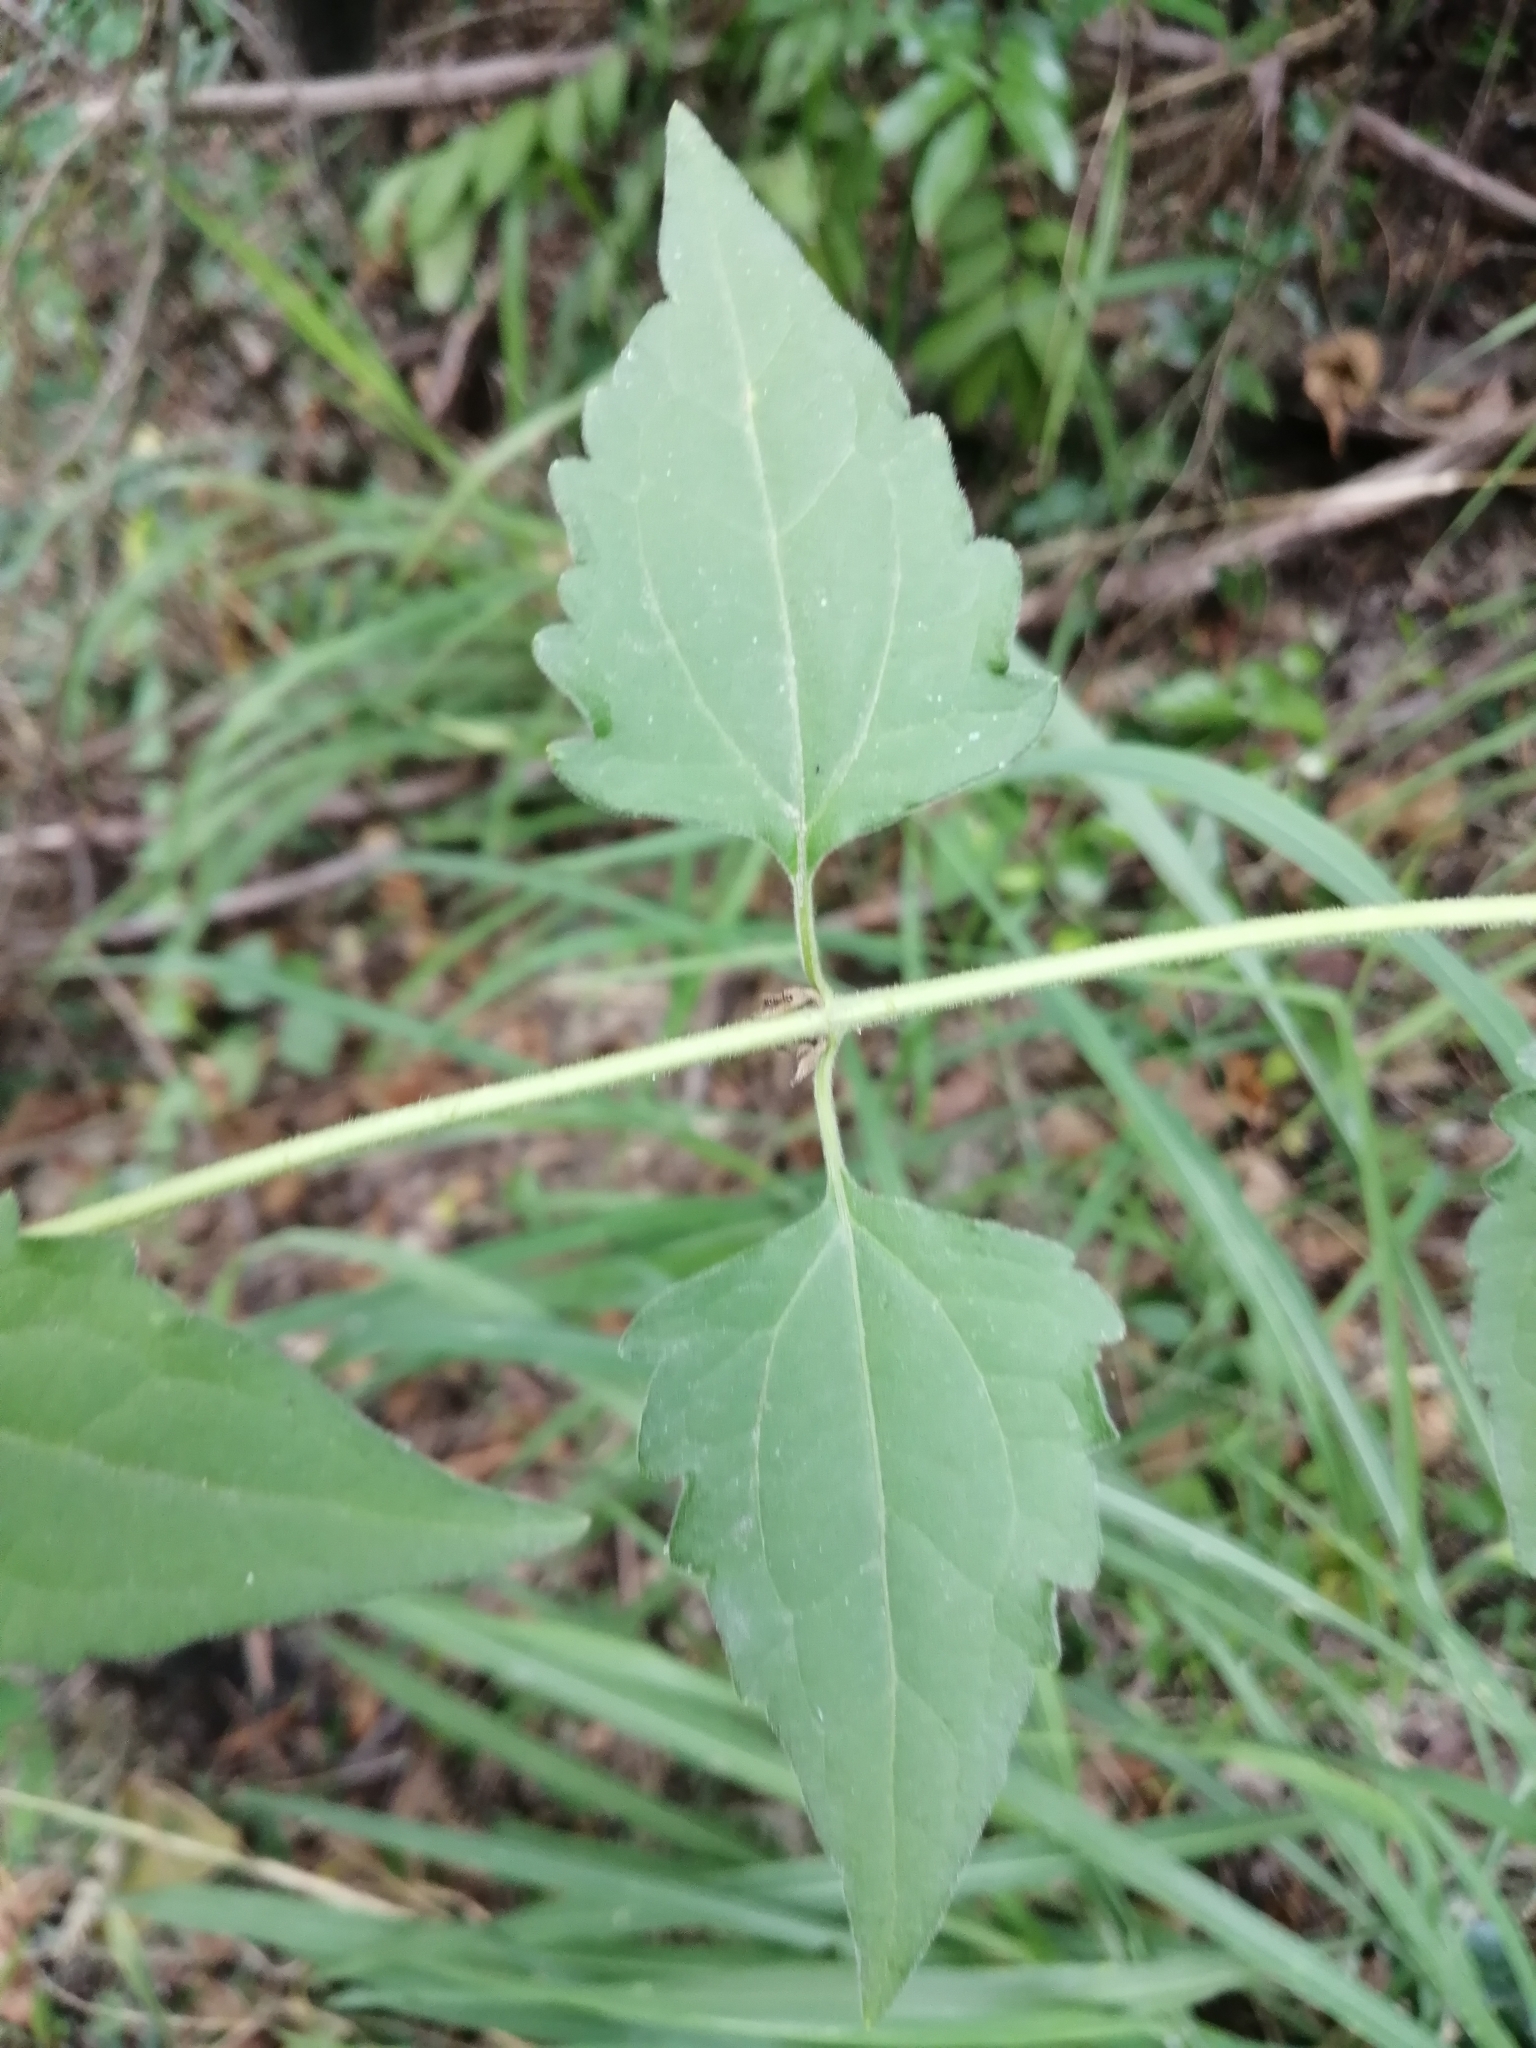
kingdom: Plantae
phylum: Tracheophyta
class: Magnoliopsida
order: Asterales
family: Asteraceae
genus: Chromolaena
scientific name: Chromolaena odorata
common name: Siamweed
